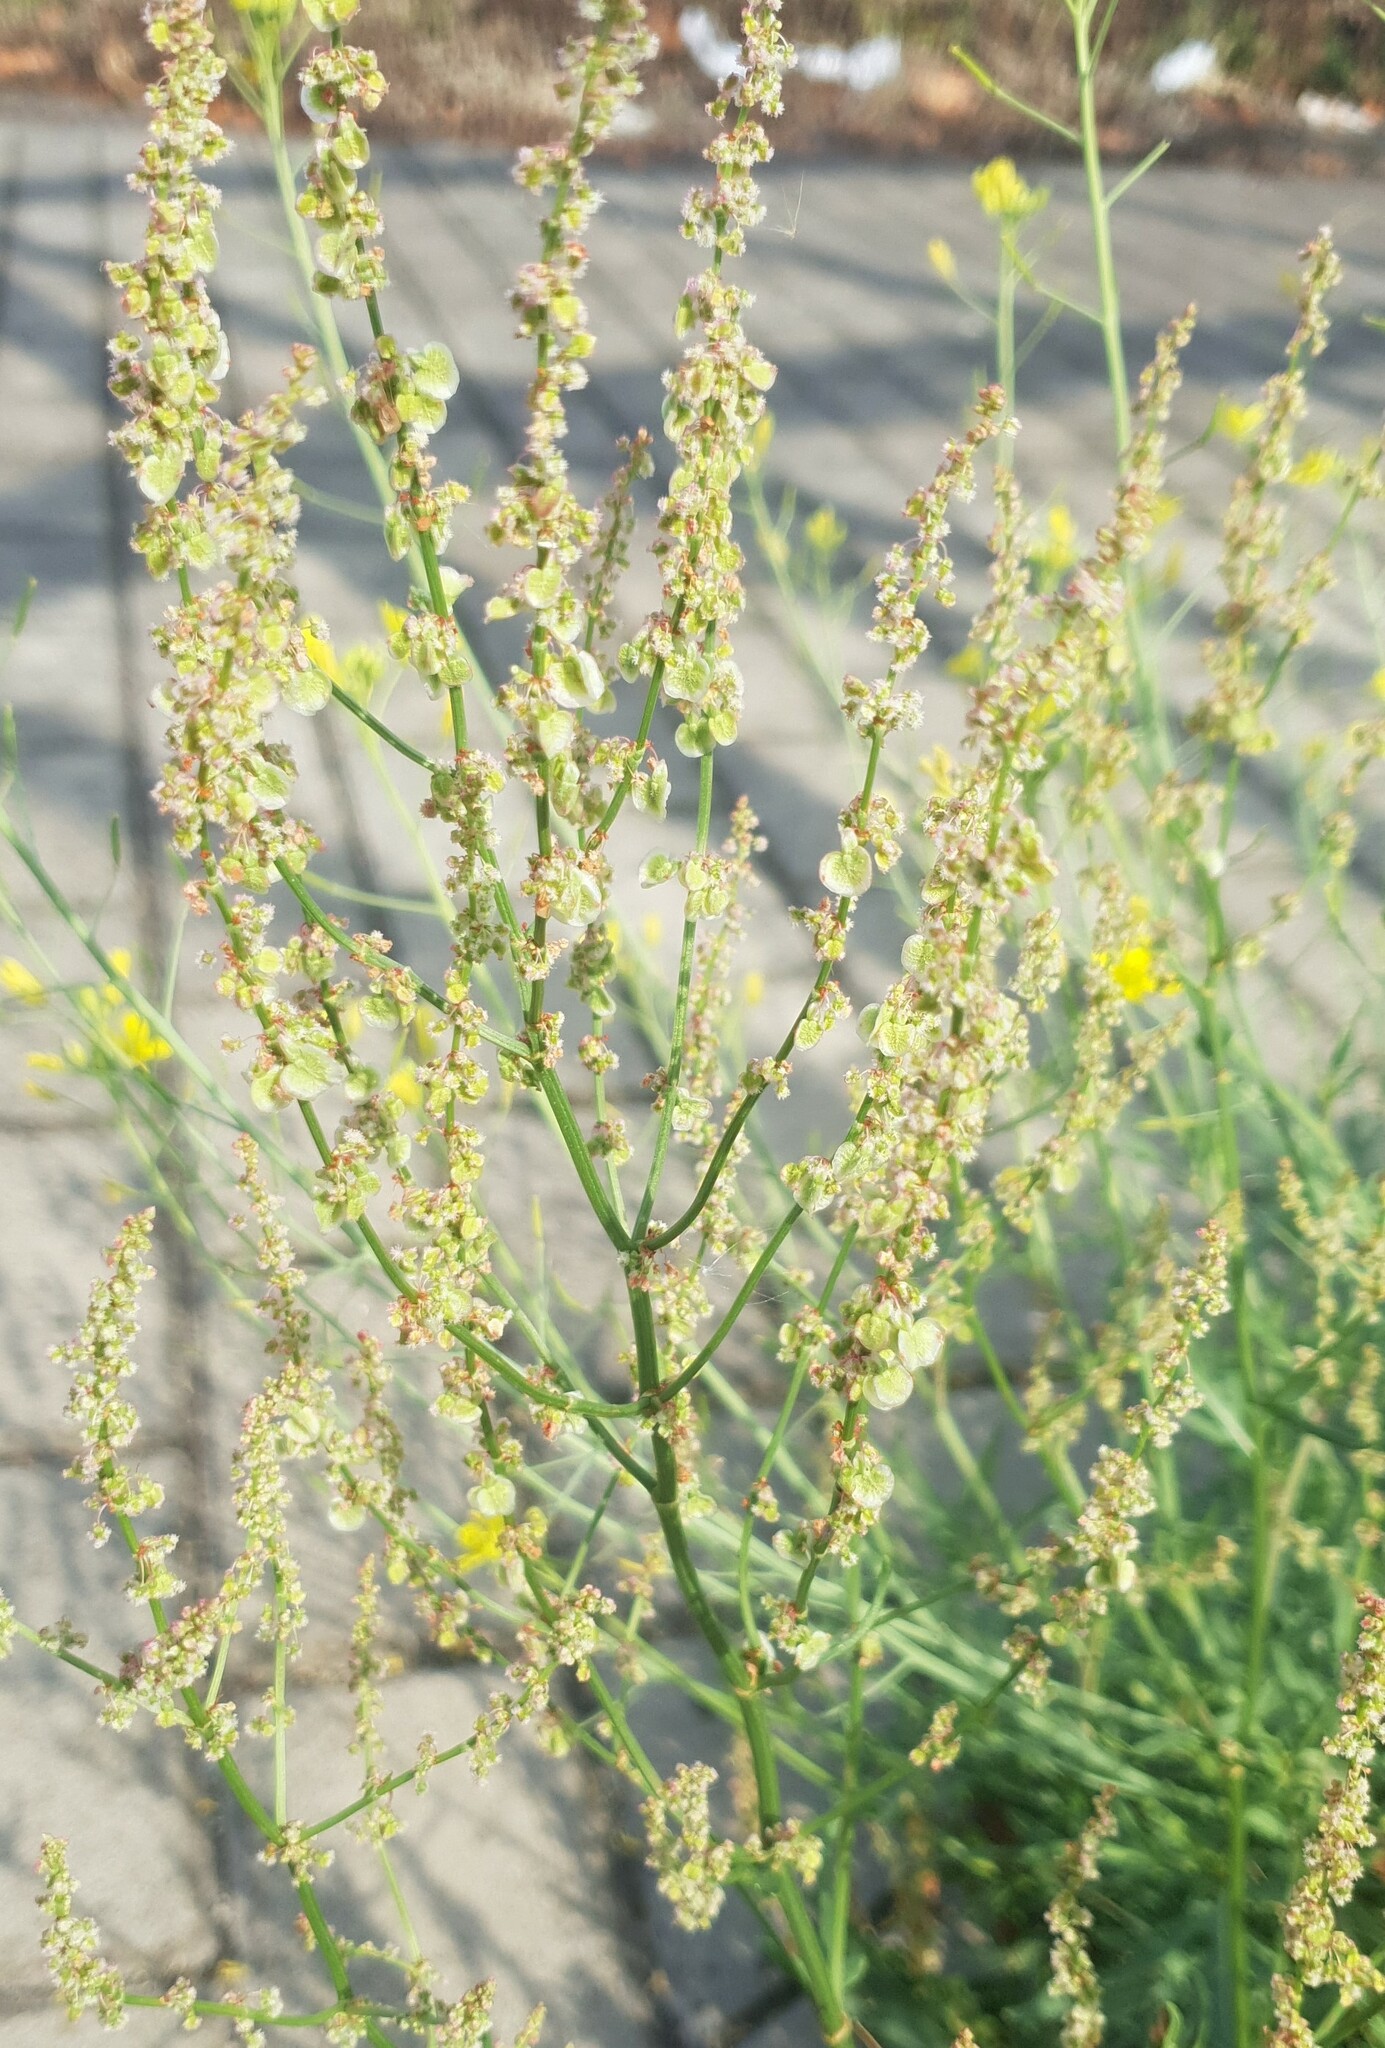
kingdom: Plantae
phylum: Tracheophyta
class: Magnoliopsida
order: Caryophyllales
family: Polygonaceae
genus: Rumex
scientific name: Rumex thyrsiflorus
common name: Garden sorrel
